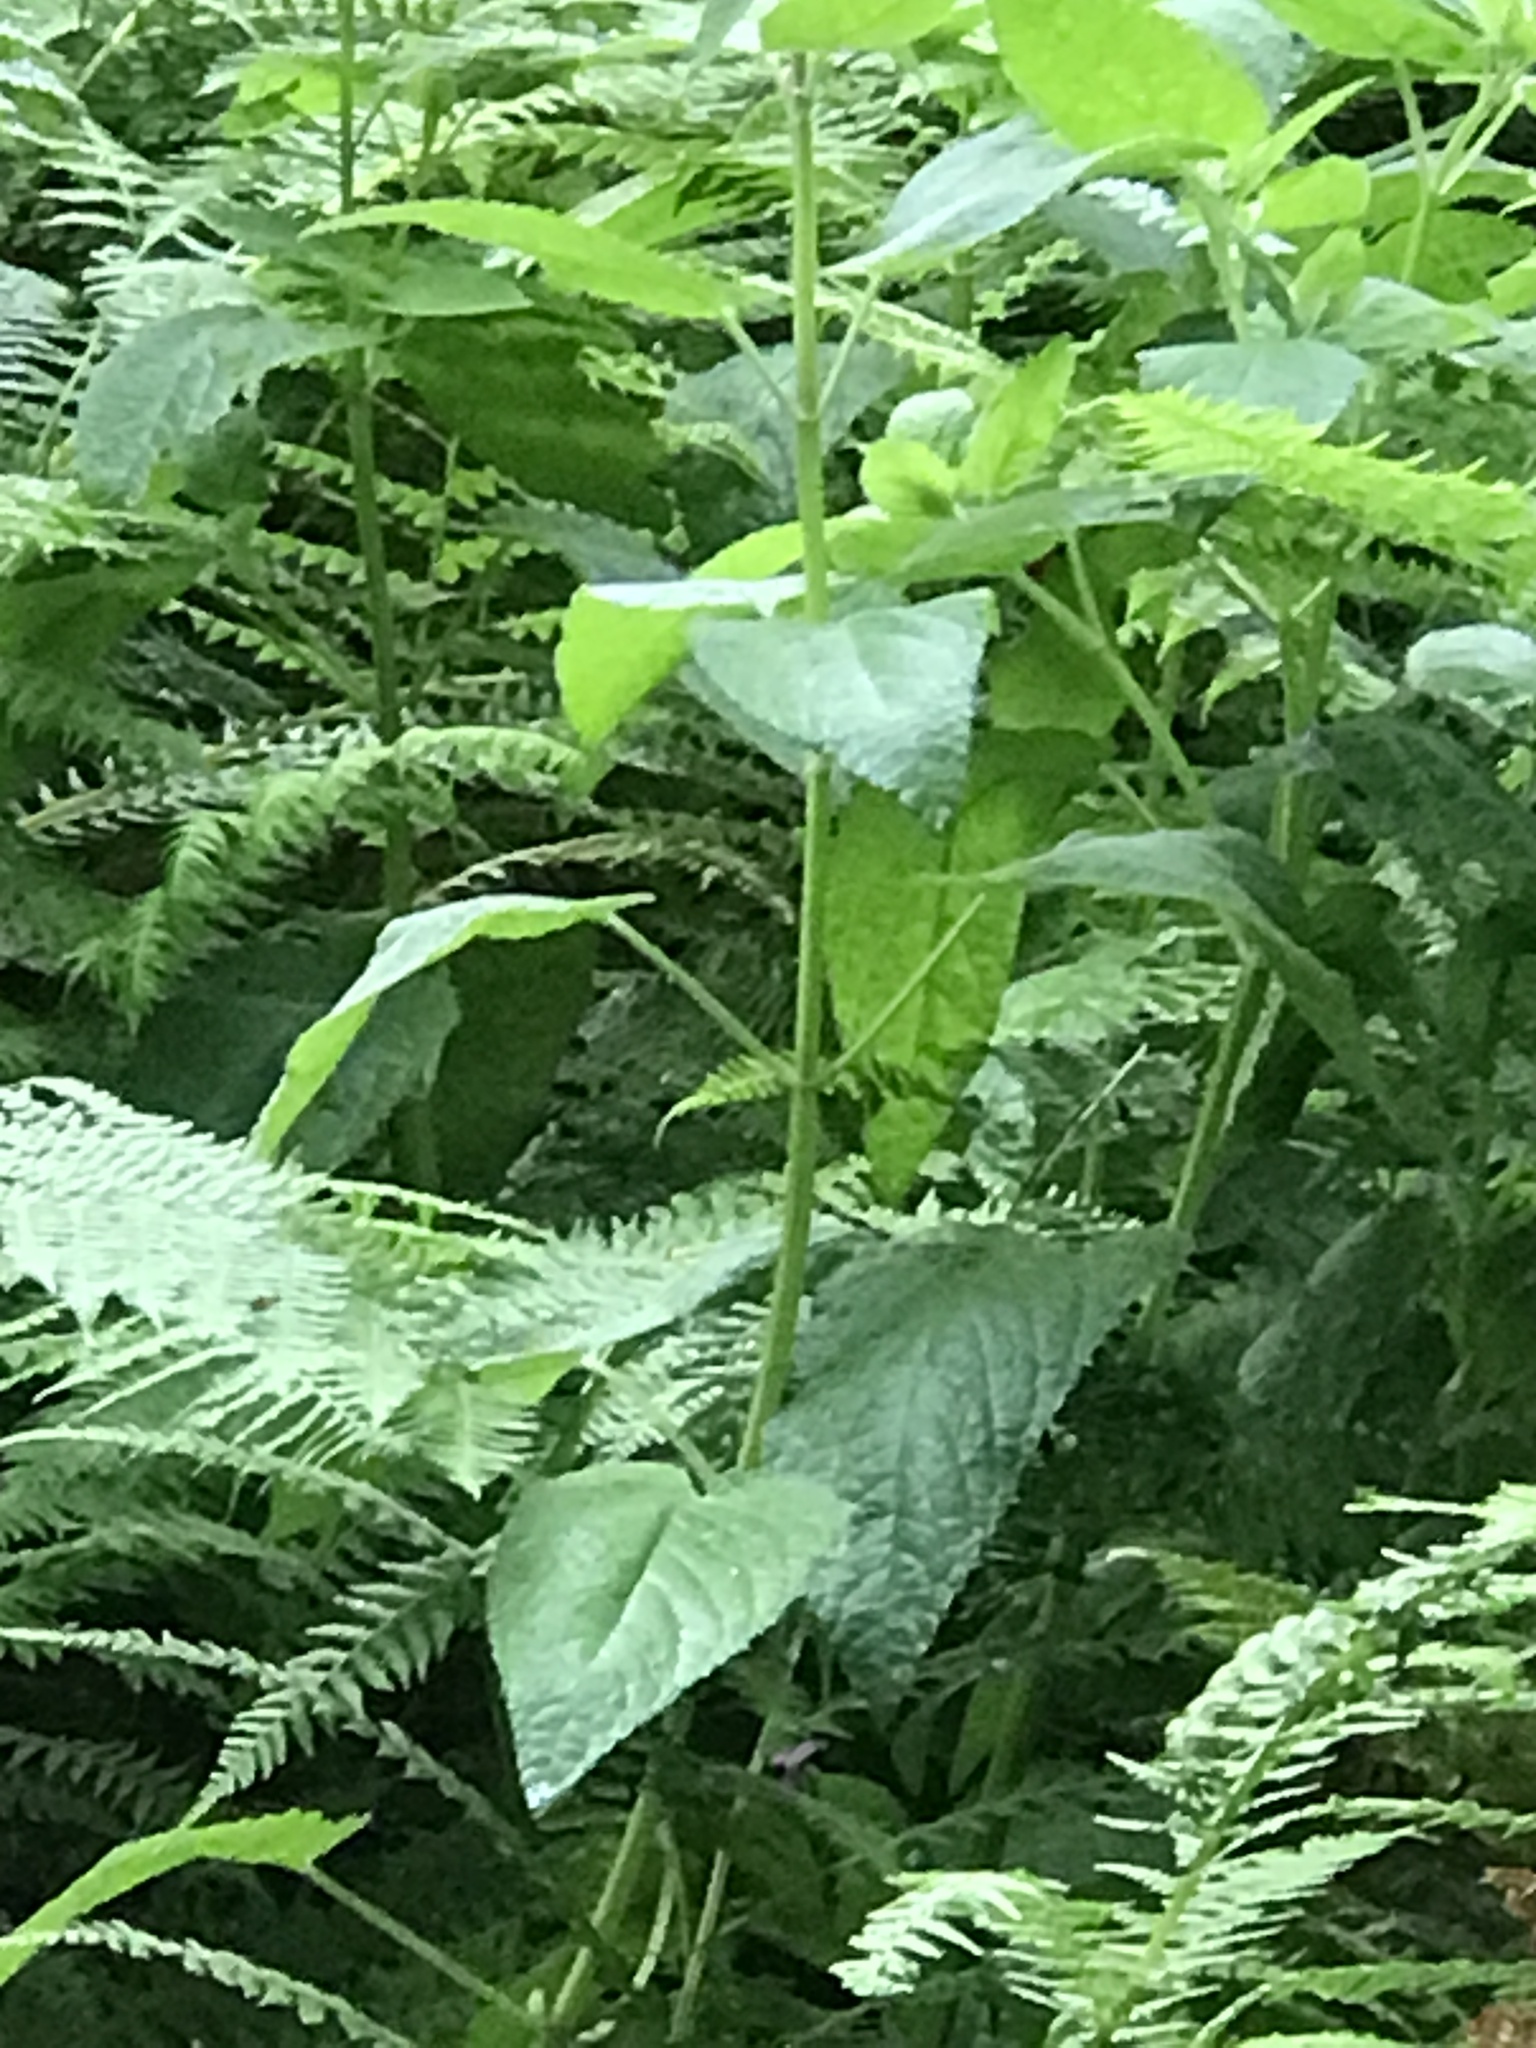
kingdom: Plantae
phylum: Tracheophyta
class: Magnoliopsida
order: Lamiales
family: Lamiaceae
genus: Stachys
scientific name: Stachys chamissonis
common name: Coastal hedge-nettle
